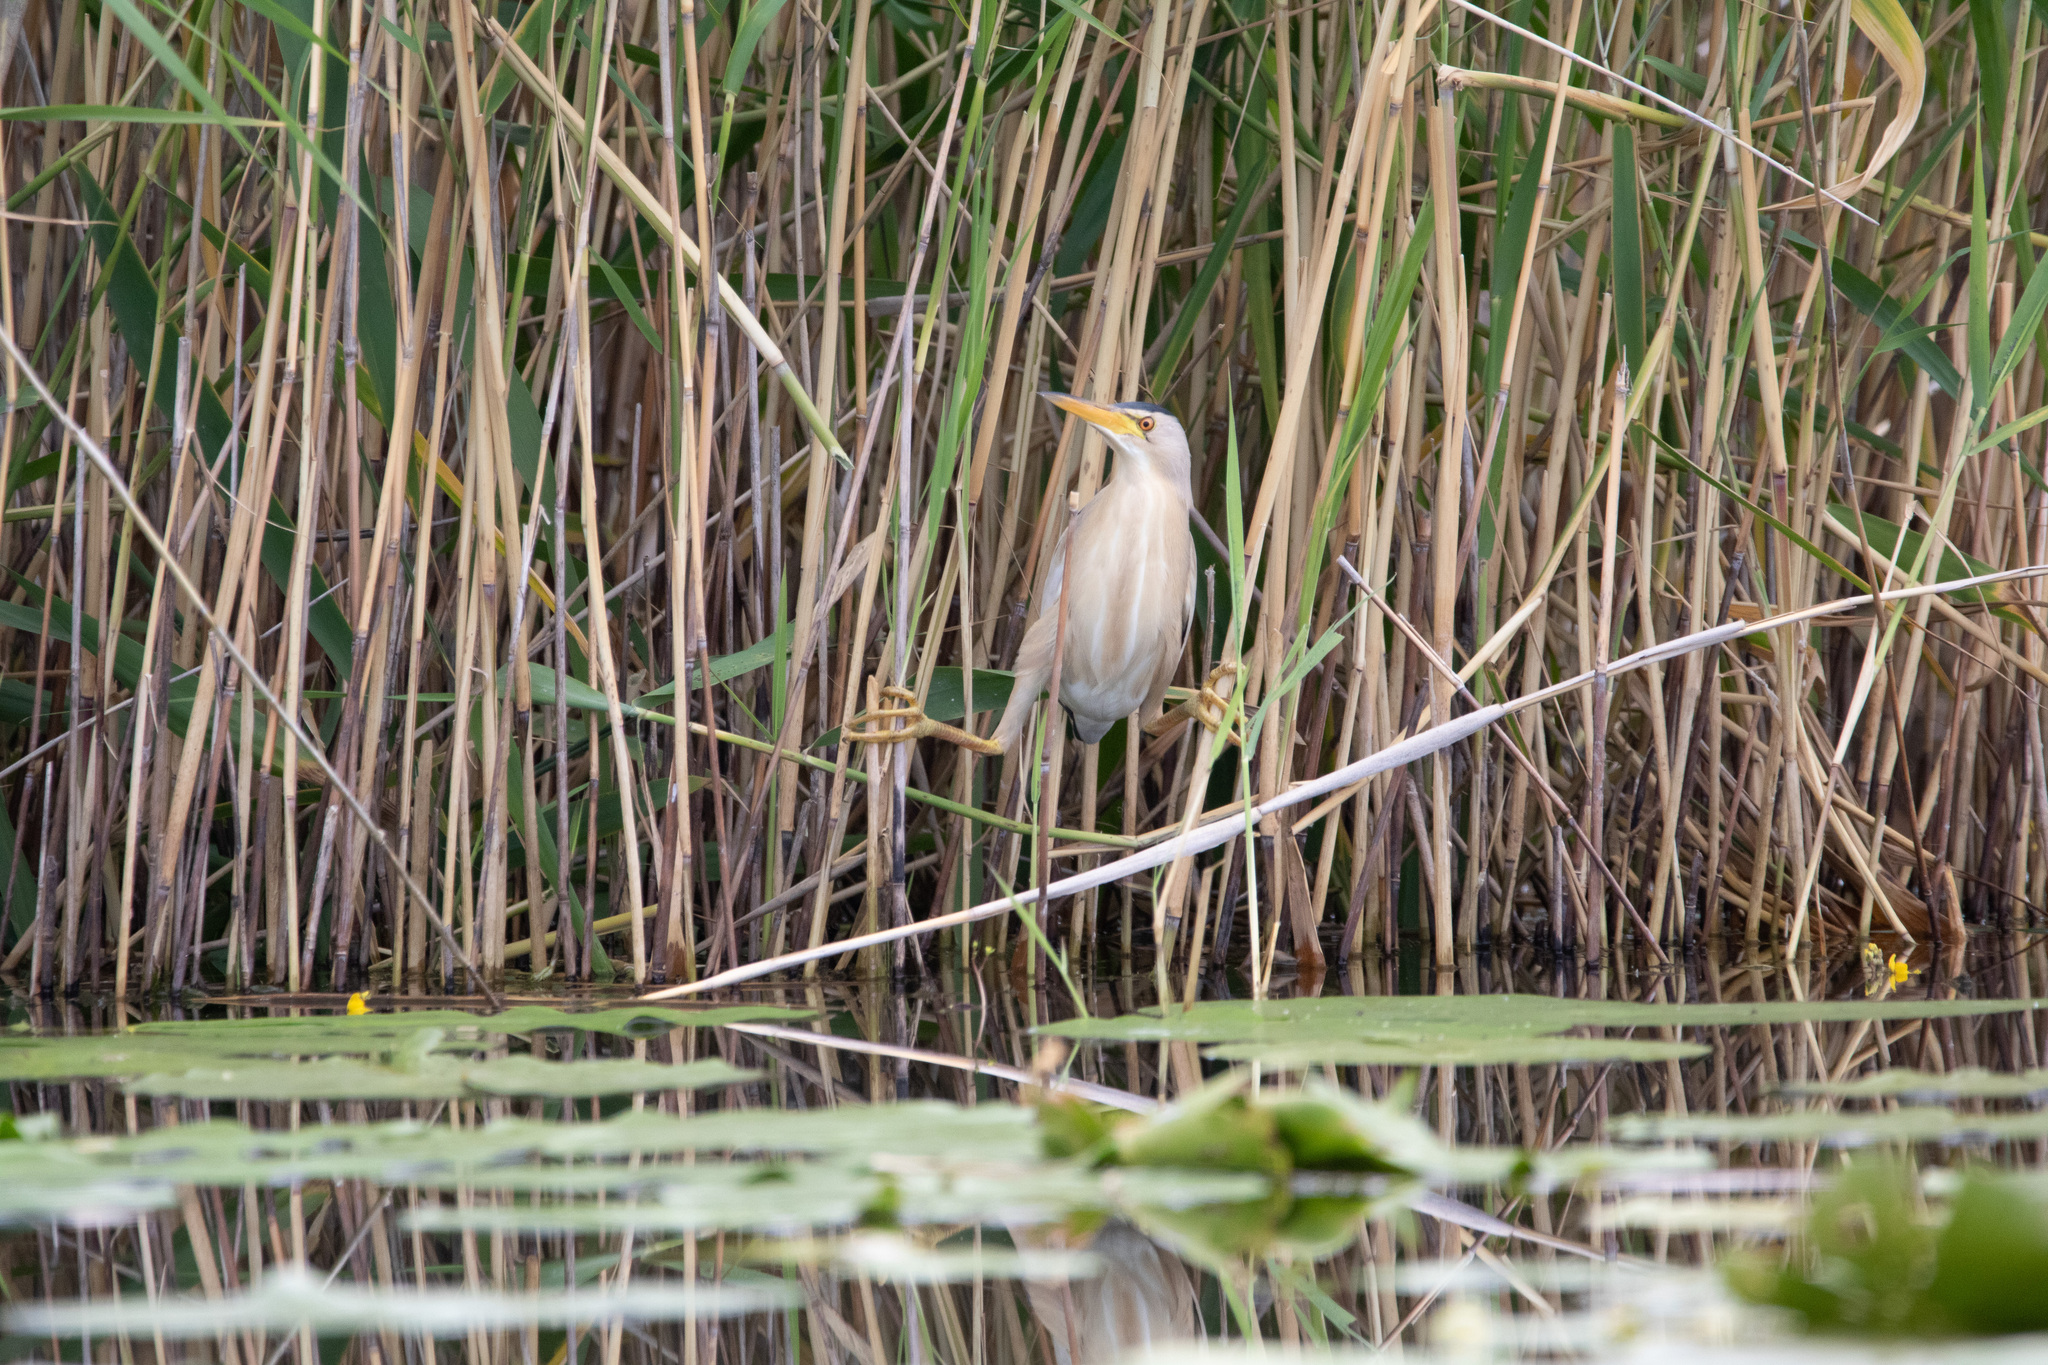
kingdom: Animalia
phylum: Chordata
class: Aves
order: Pelecaniformes
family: Ardeidae
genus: Ixobrychus
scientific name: Ixobrychus minutus
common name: Little bittern
